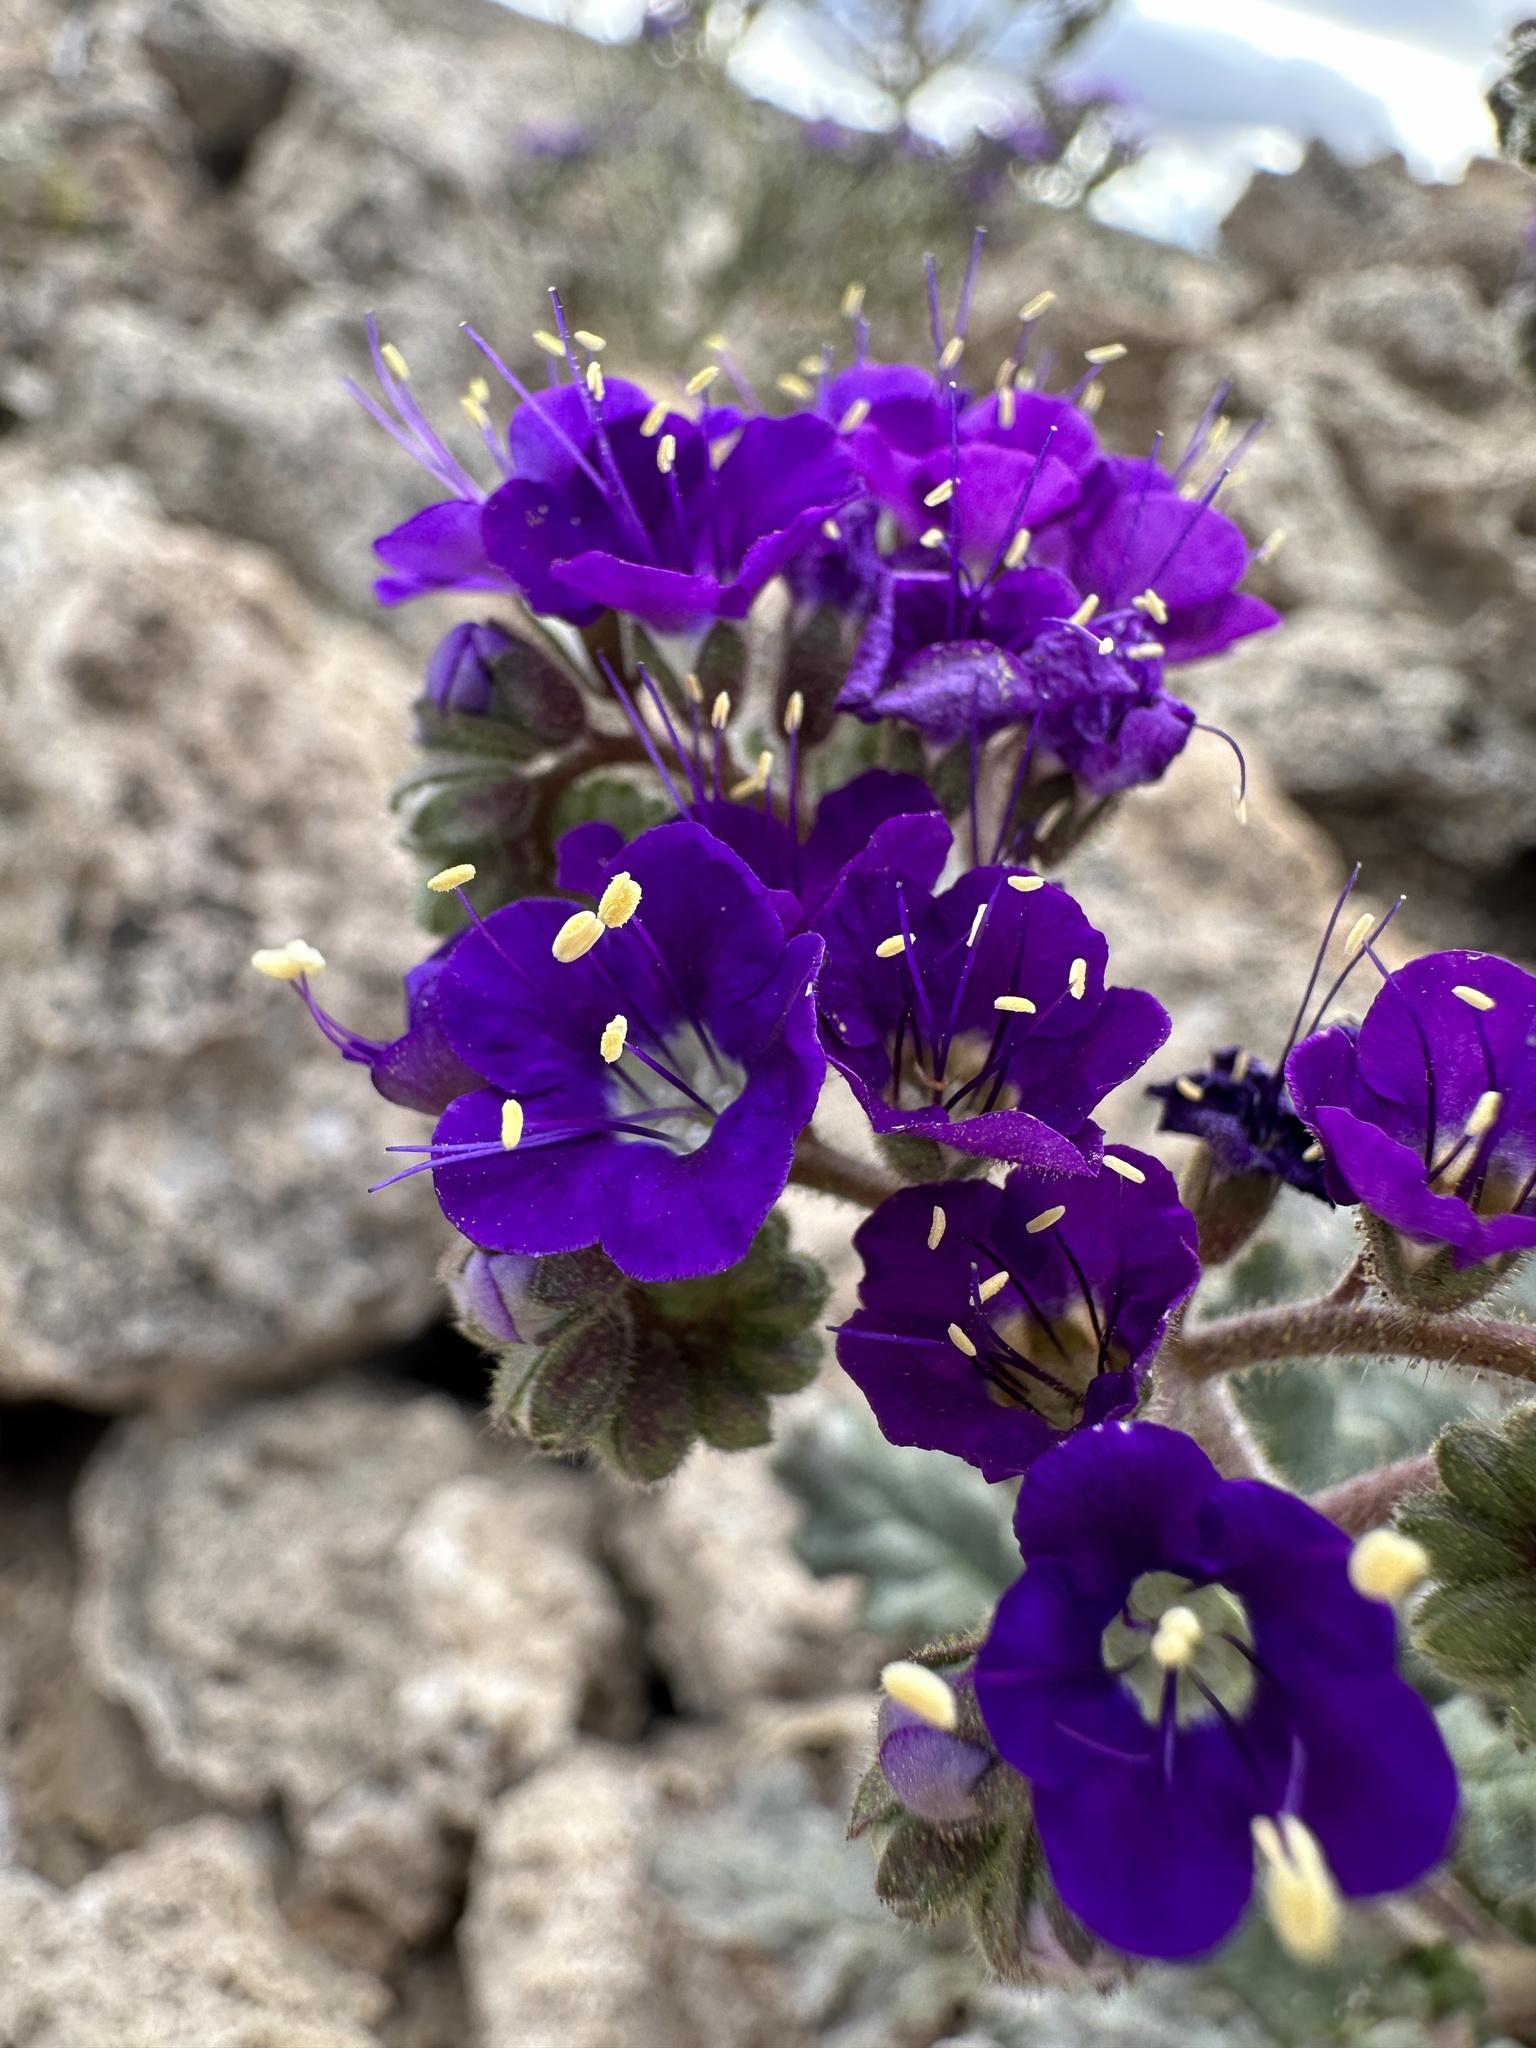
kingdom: Plantae
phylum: Tracheophyta
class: Magnoliopsida
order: Boraginales
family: Hydrophyllaceae
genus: Phacelia
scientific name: Phacelia crenulata
